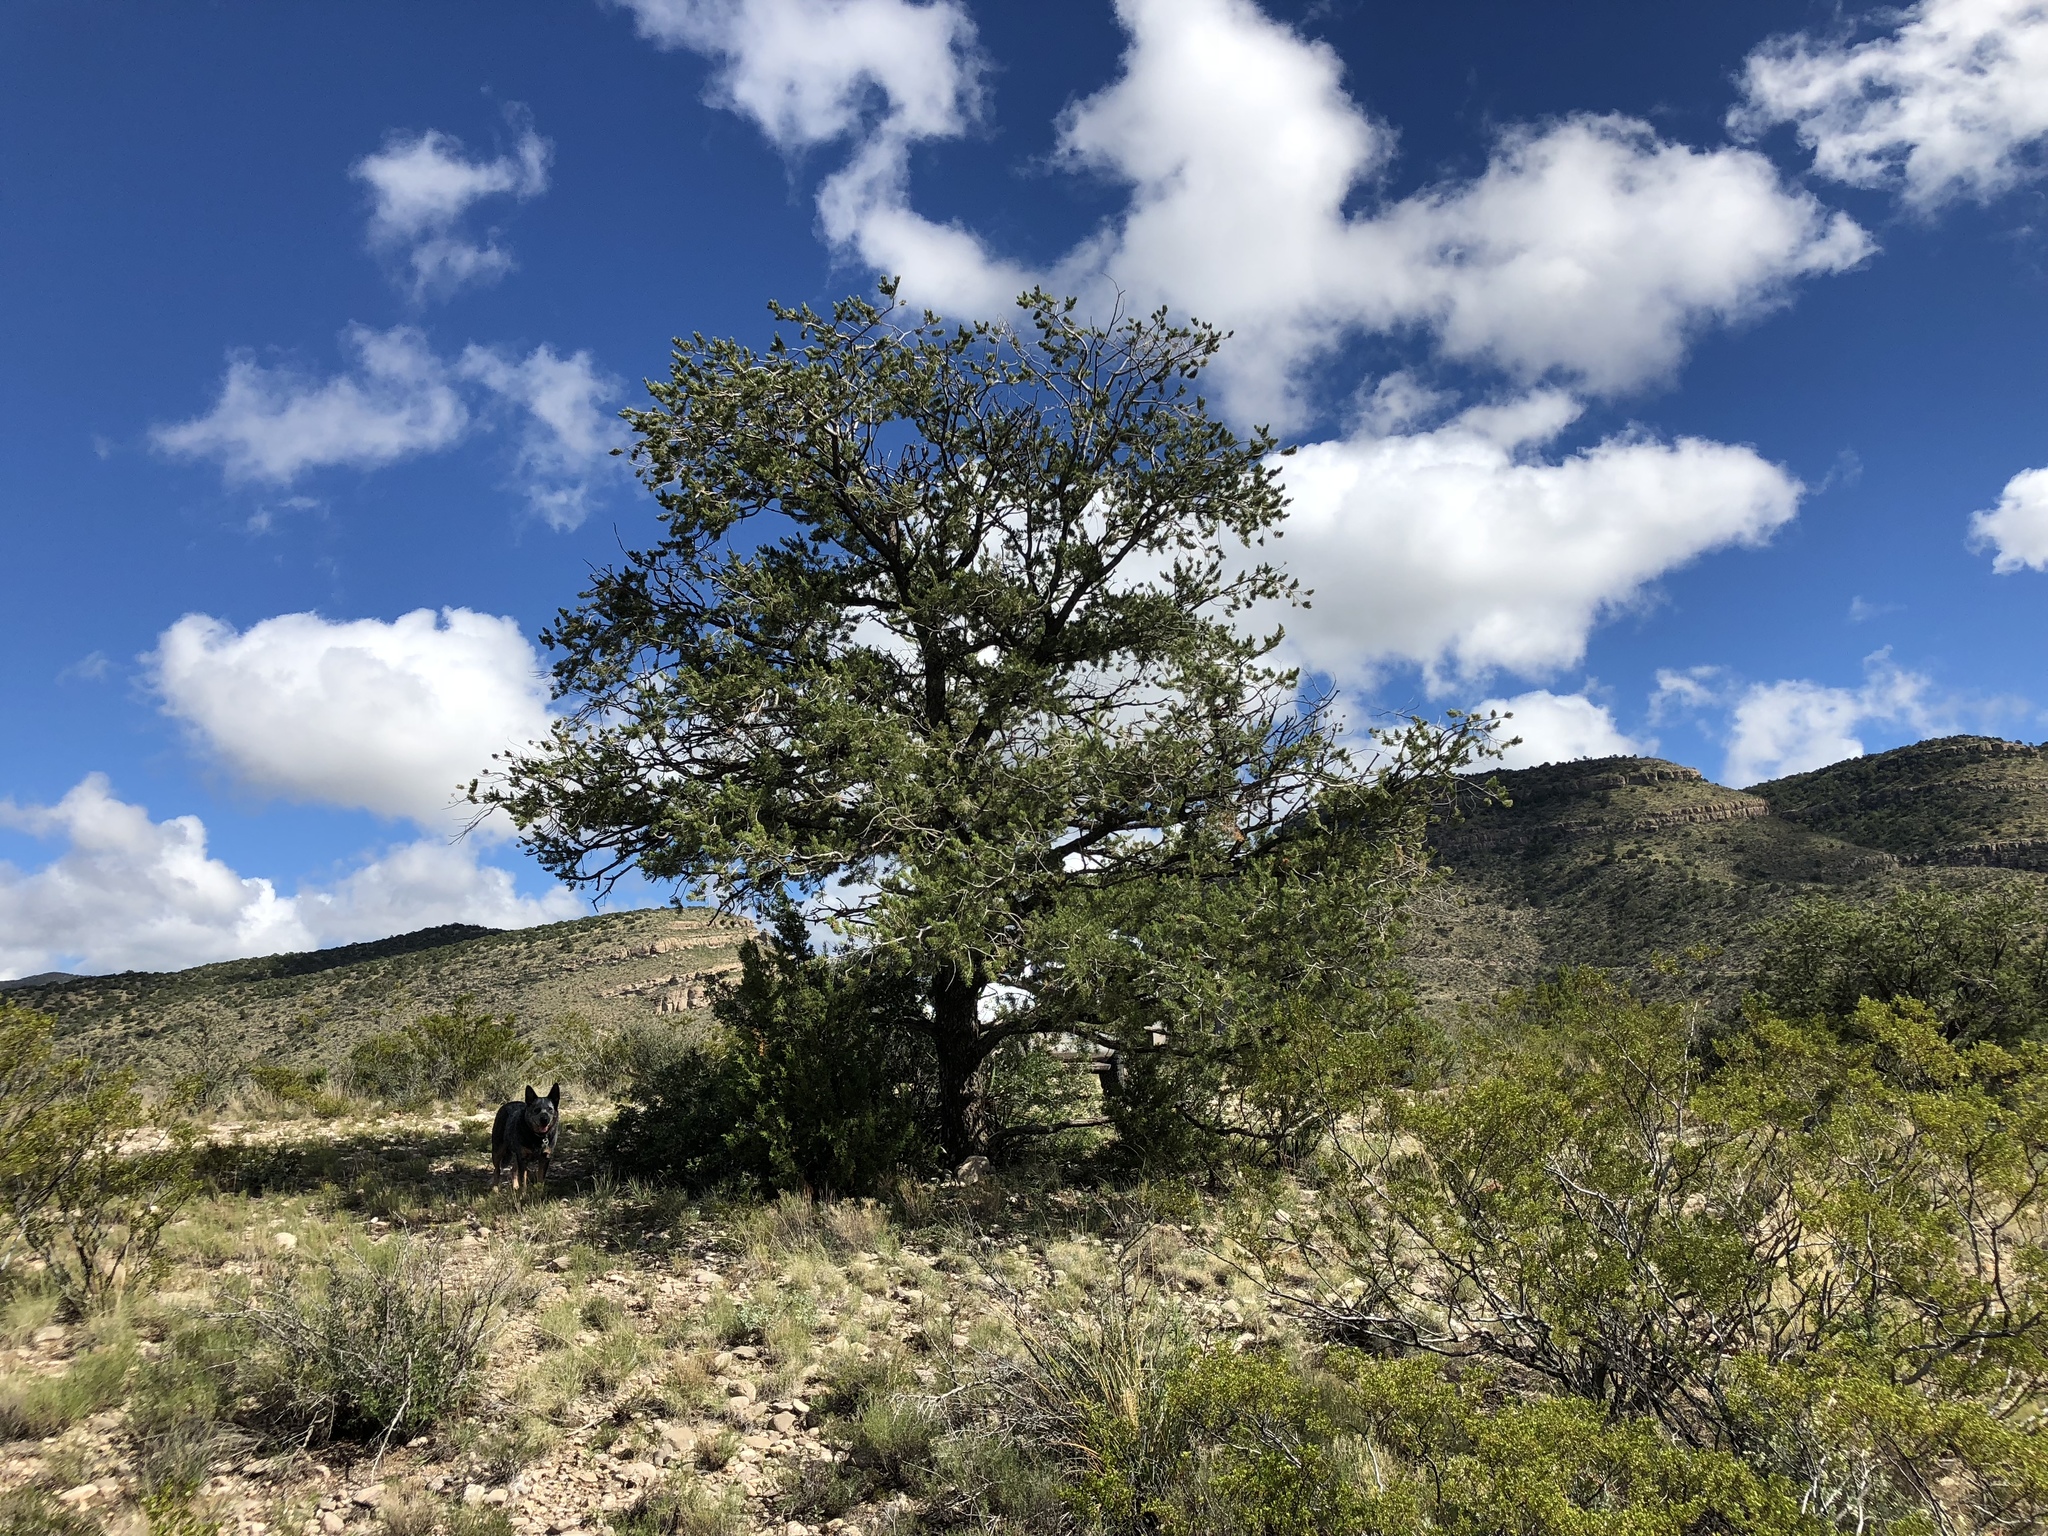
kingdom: Plantae
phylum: Tracheophyta
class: Pinopsida
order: Pinales
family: Pinaceae
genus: Pinus
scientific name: Pinus edulis
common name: Colorado pinyon
